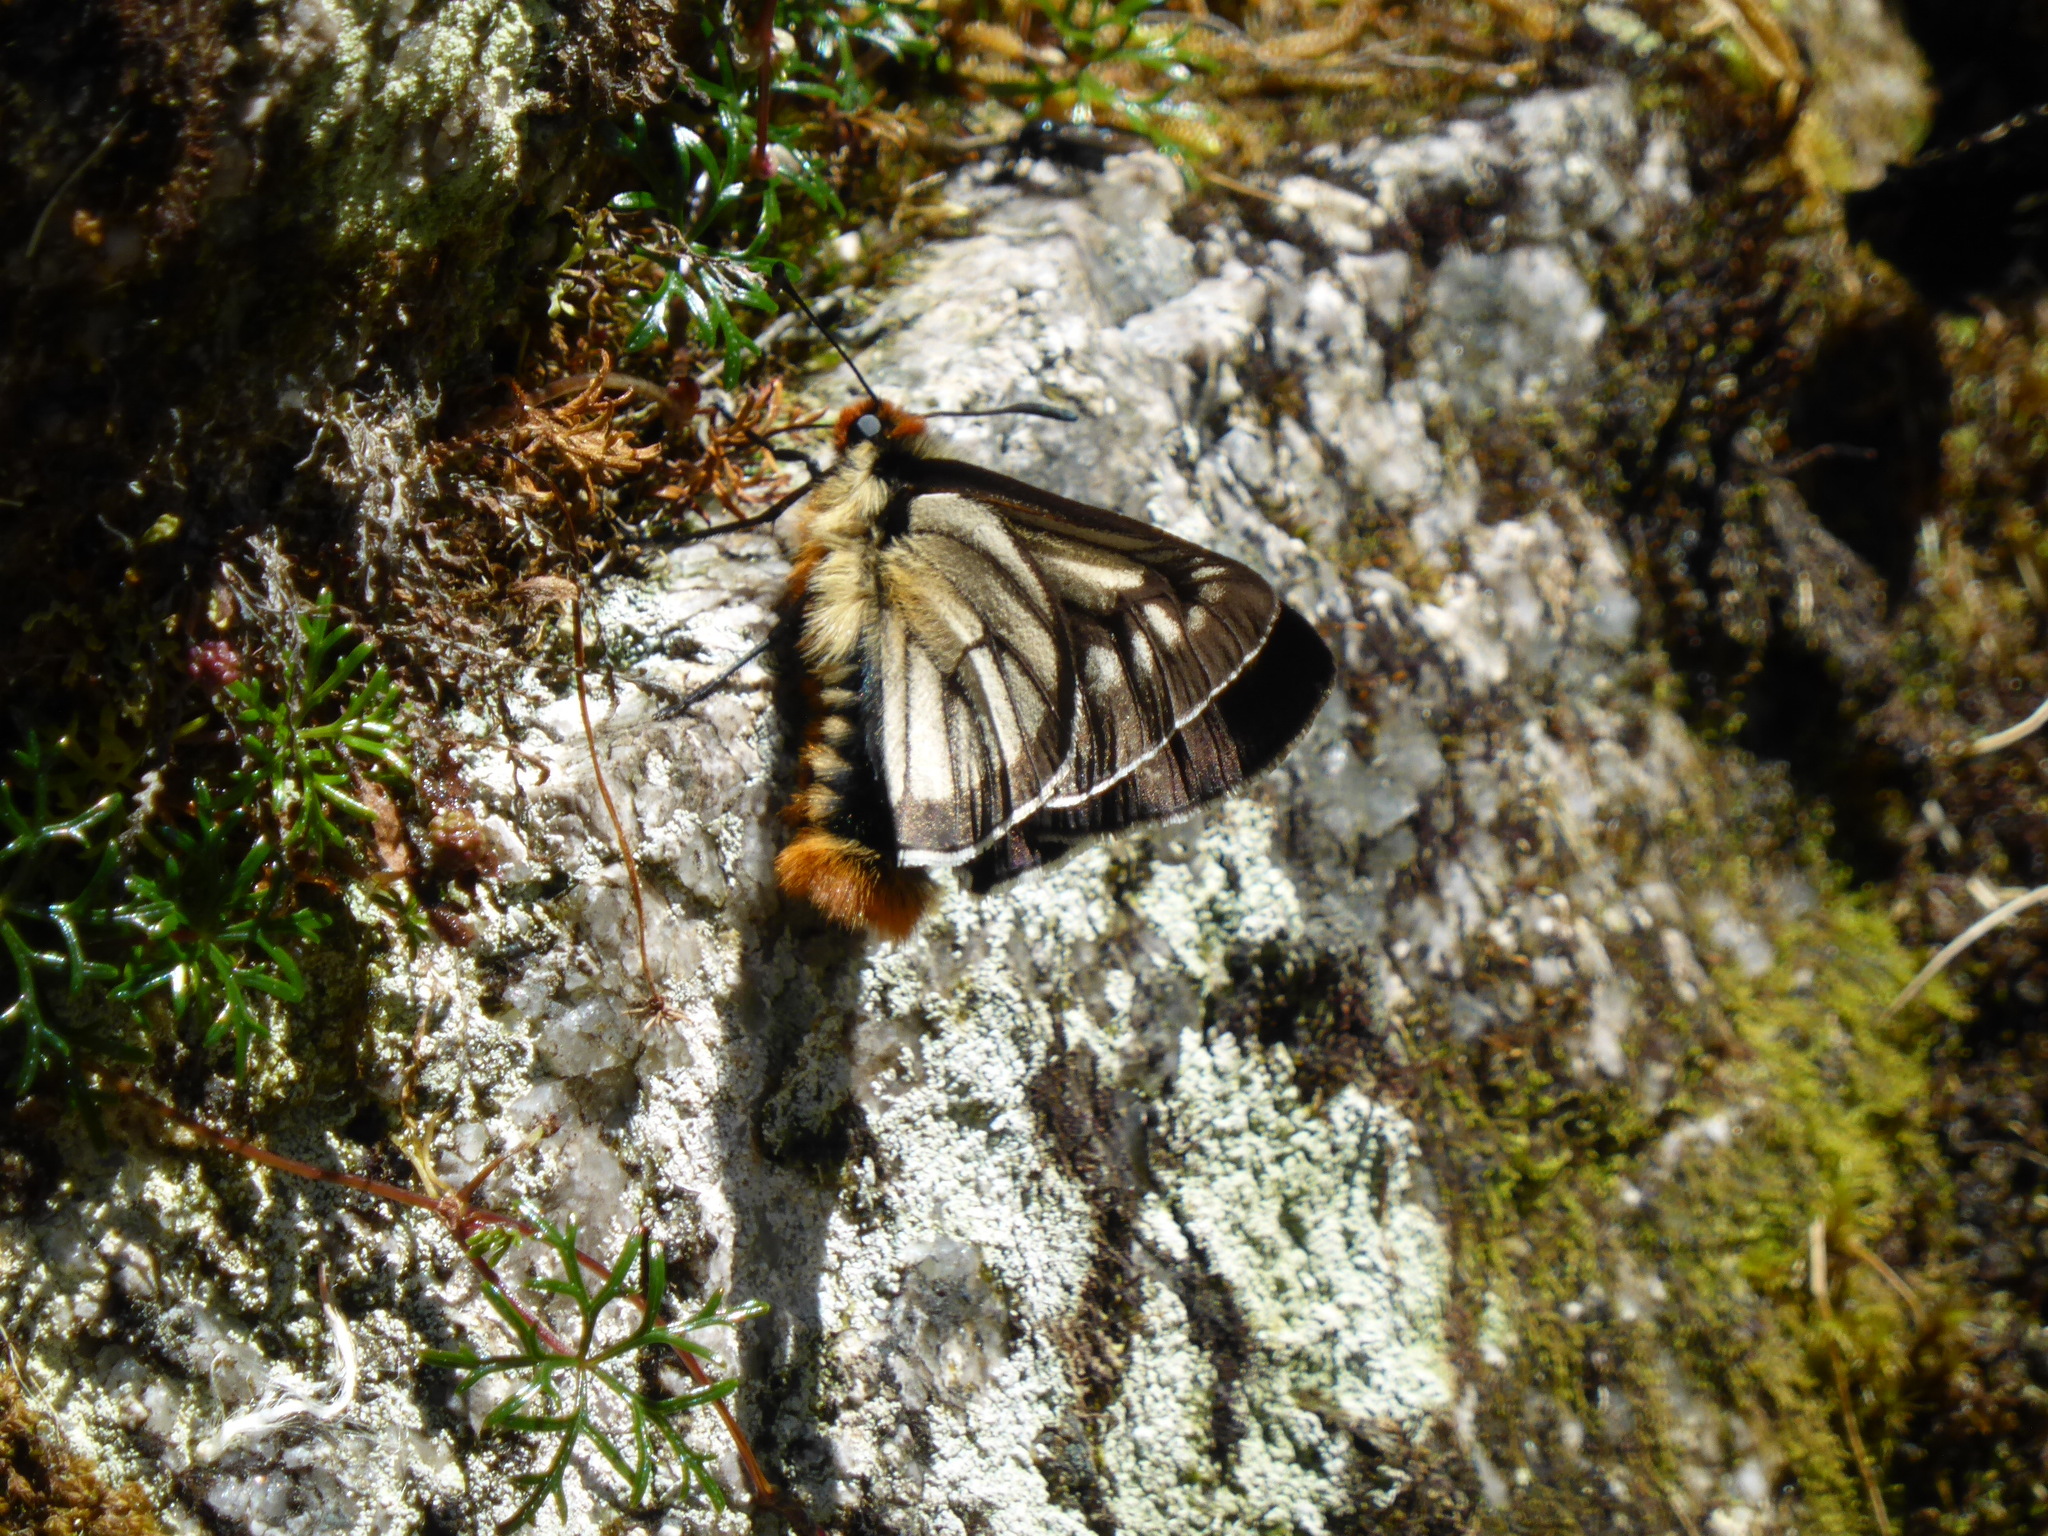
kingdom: Animalia
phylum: Arthropoda
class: Insecta
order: Lepidoptera
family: Hesperiidae
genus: Metardaris
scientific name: Metardaris cosinga
